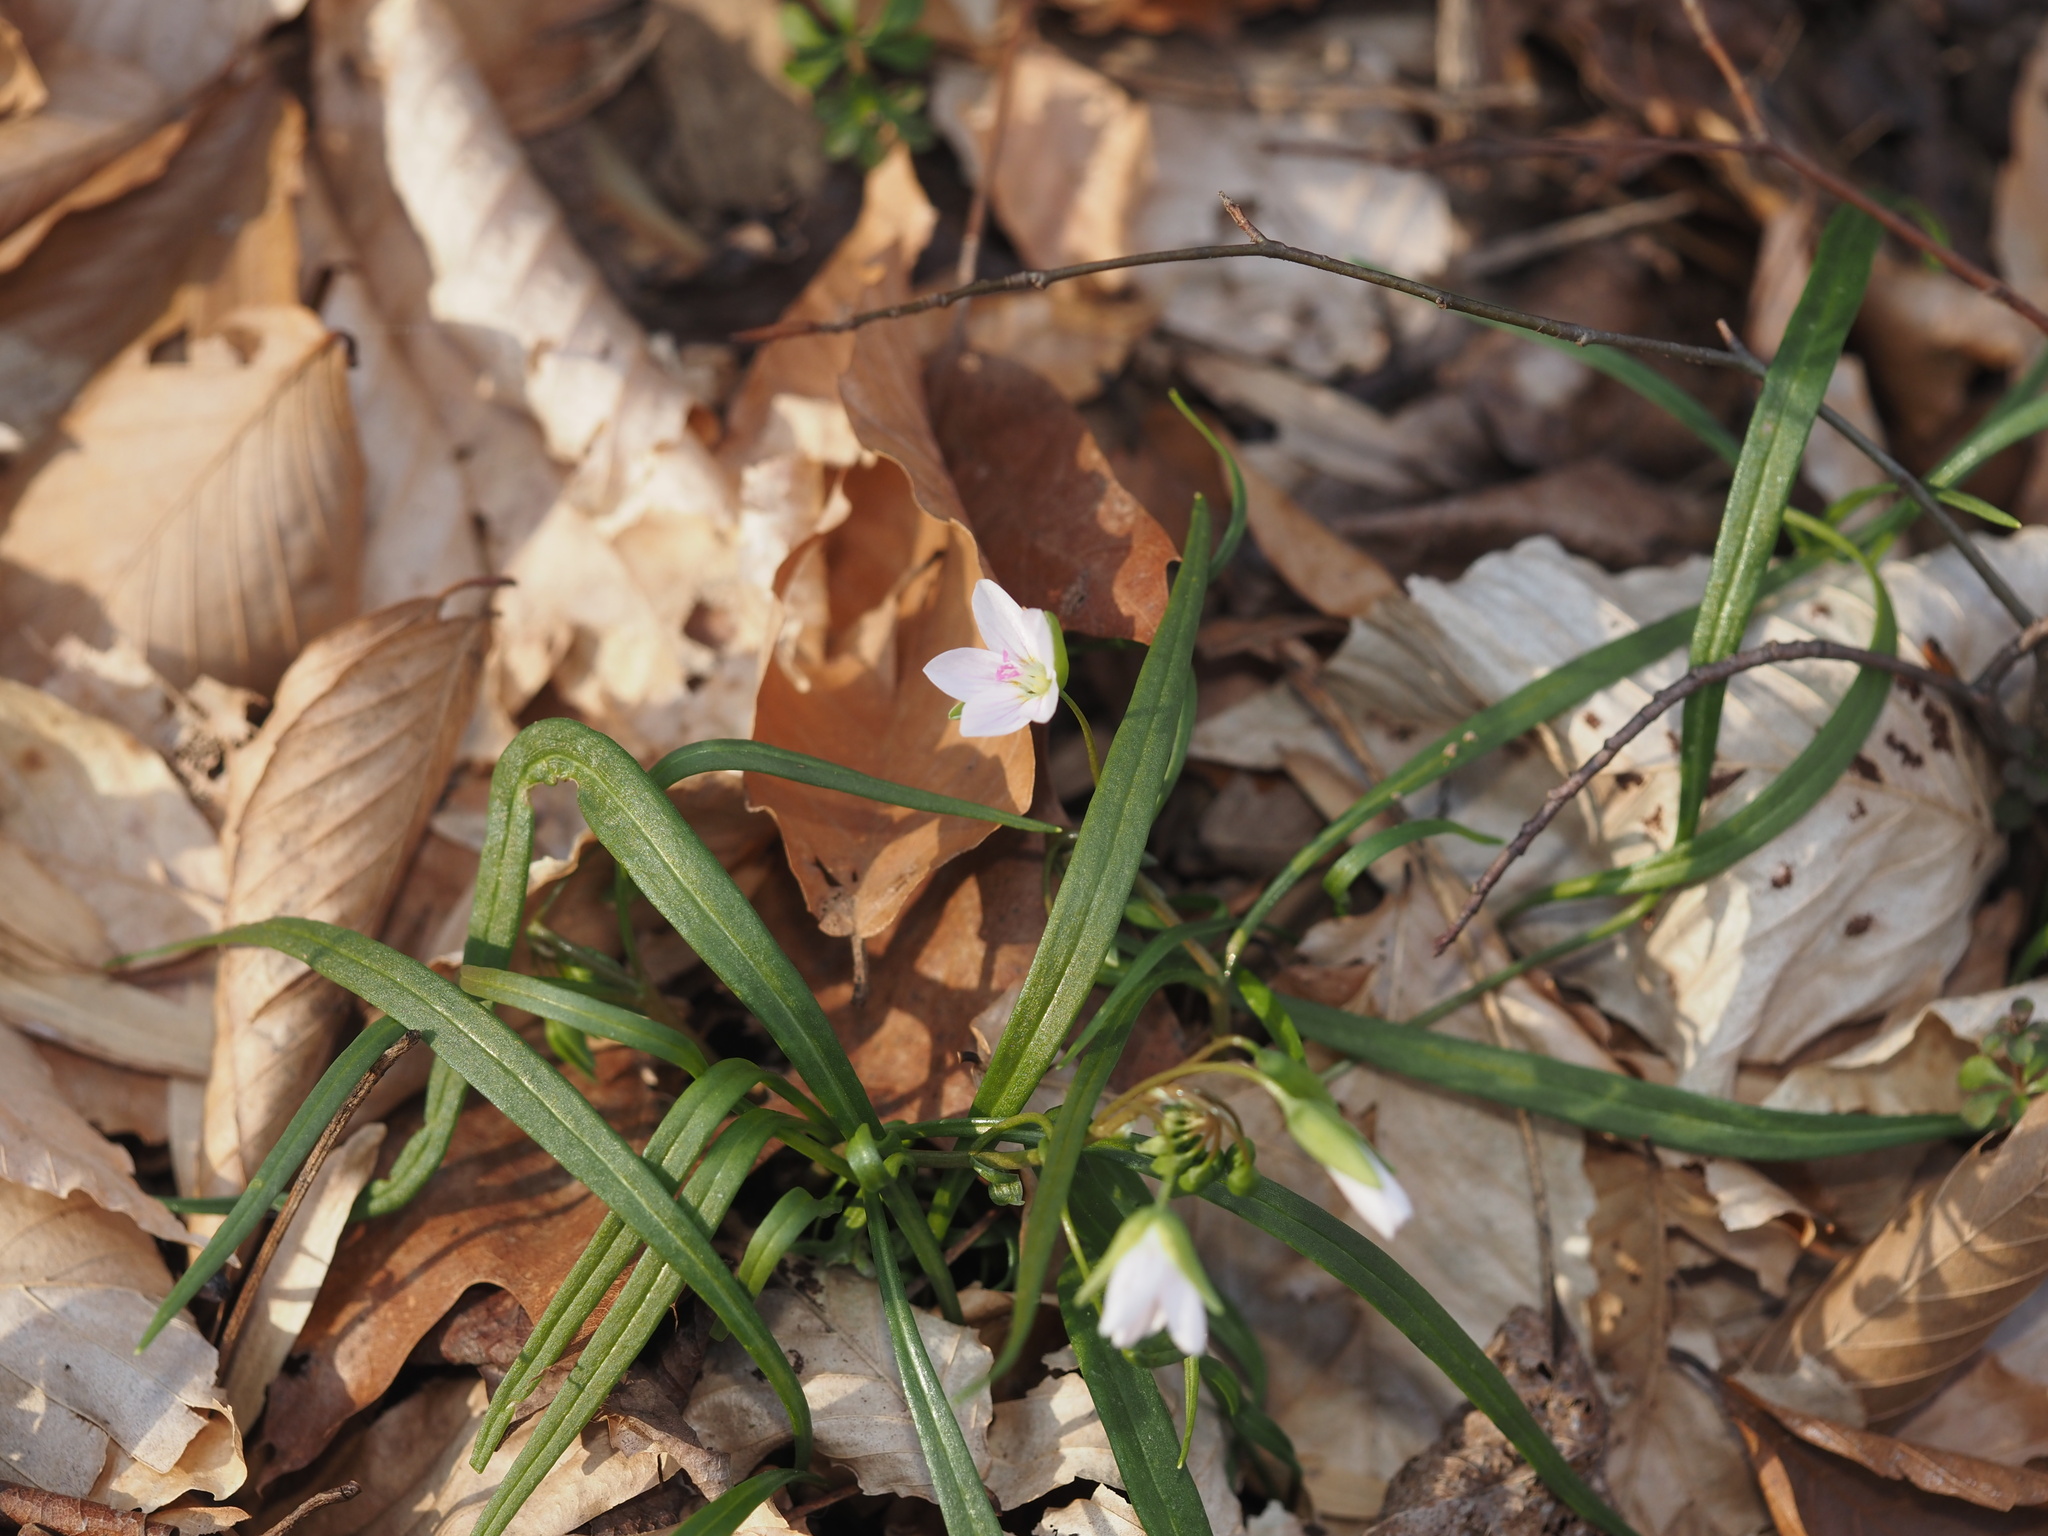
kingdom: Plantae
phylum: Tracheophyta
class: Magnoliopsida
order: Caryophyllales
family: Montiaceae
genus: Claytonia
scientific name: Claytonia virginica
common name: Virginia springbeauty
